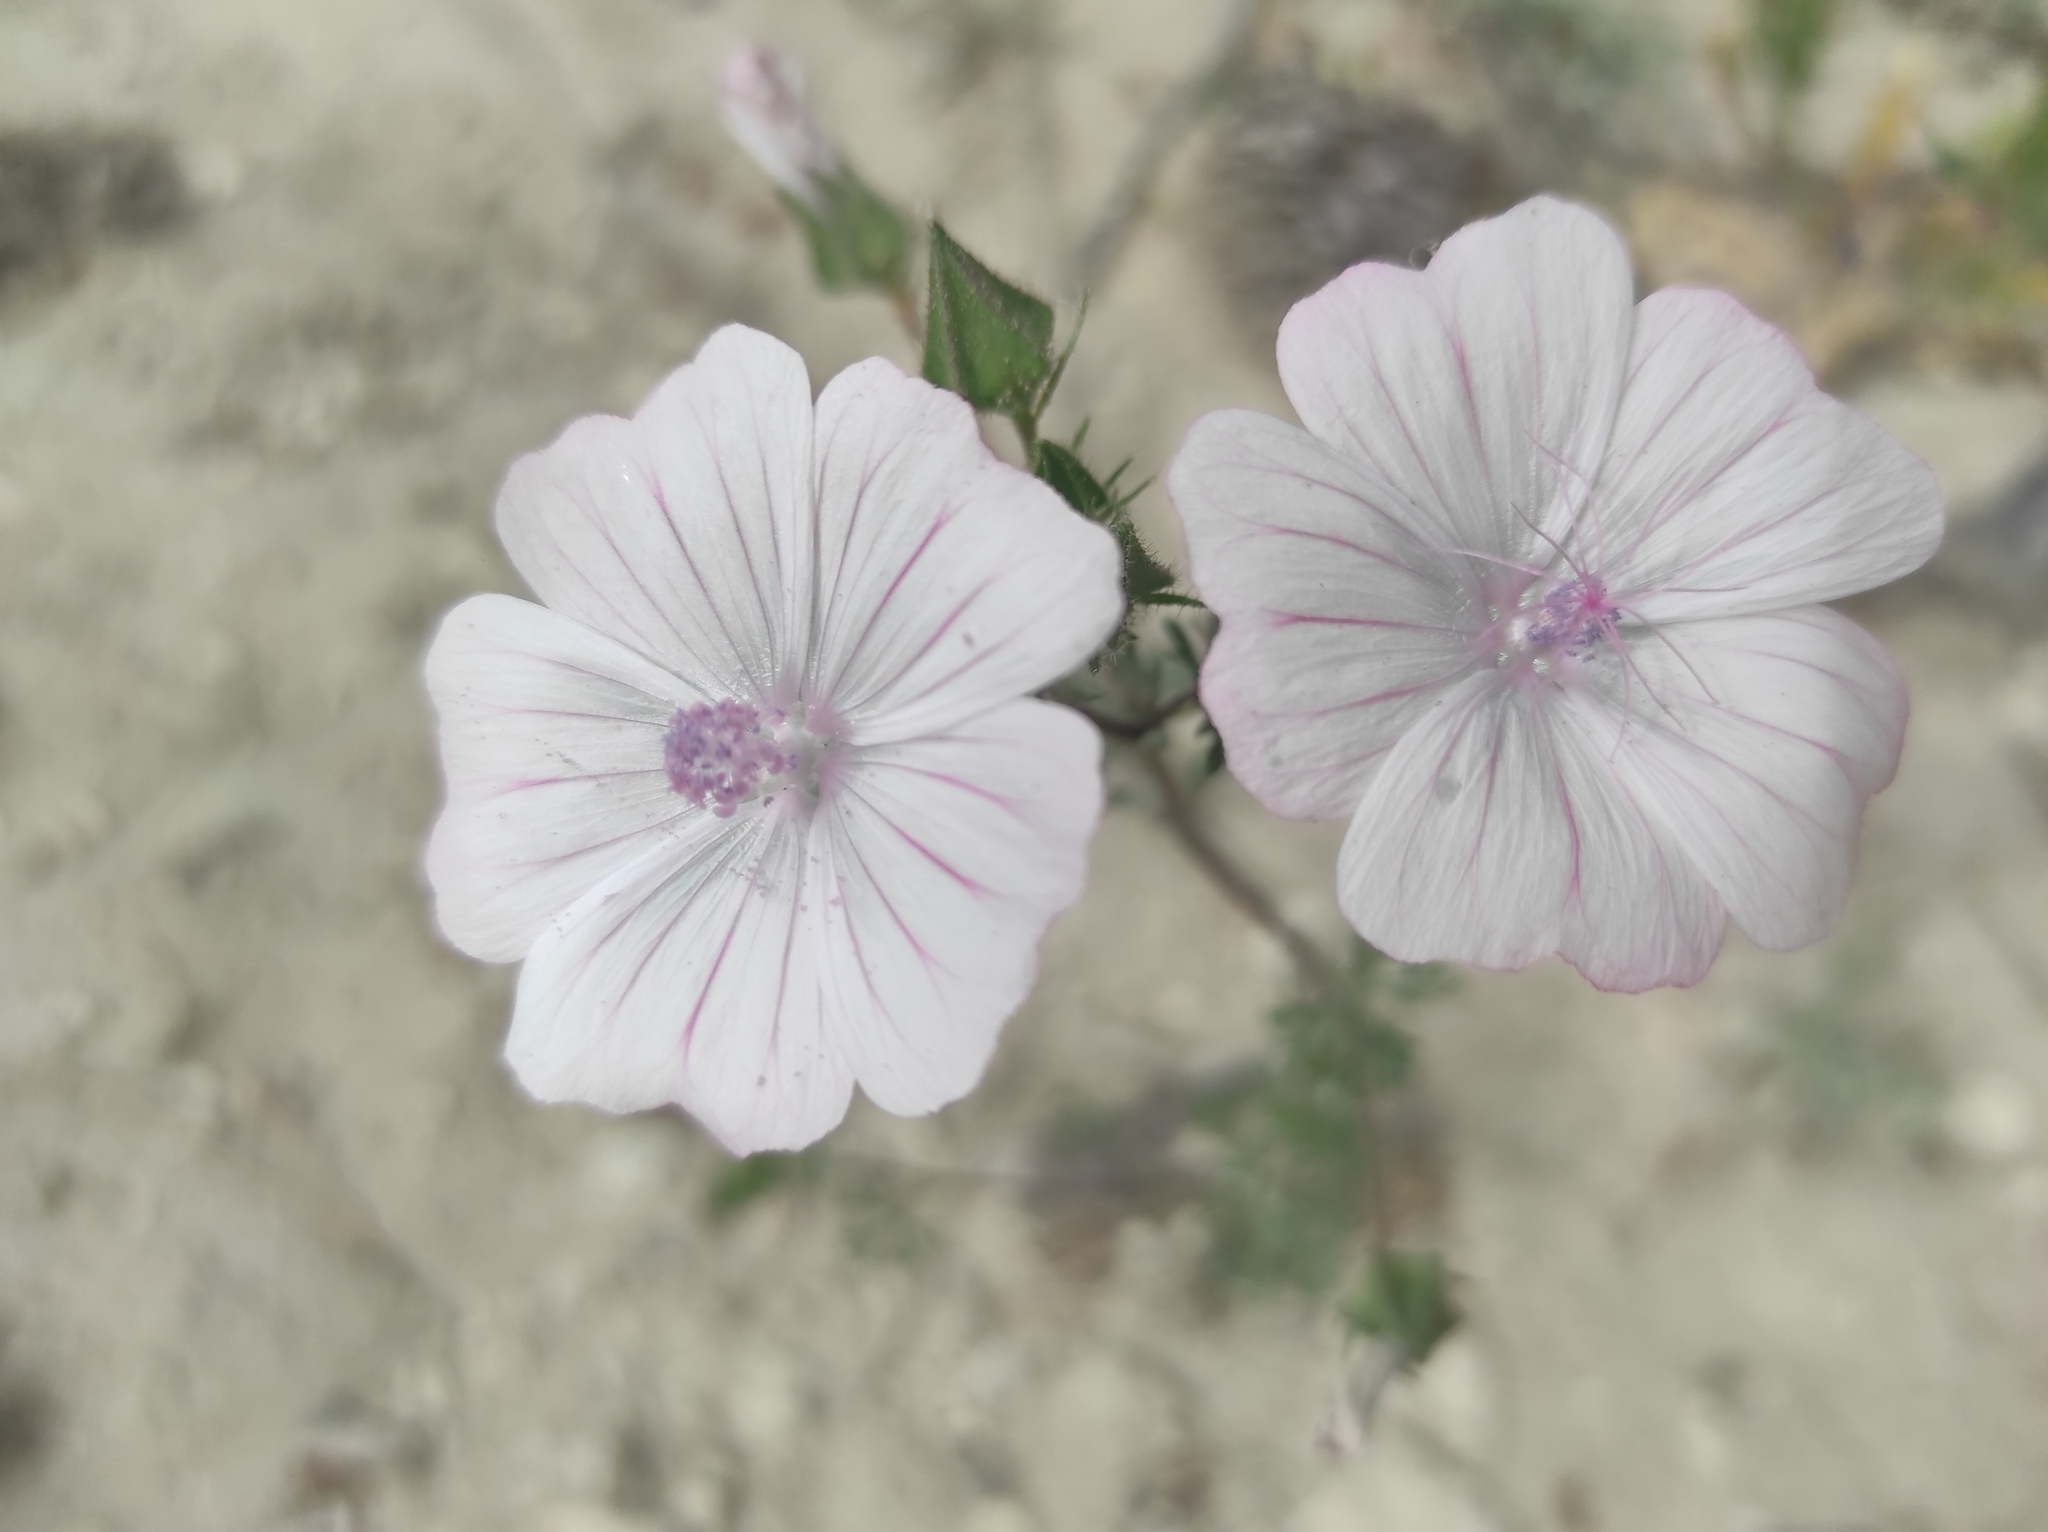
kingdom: Plantae
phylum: Tracheophyta
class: Magnoliopsida
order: Malvales
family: Malvaceae
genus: Malva
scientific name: Malva hispanica
